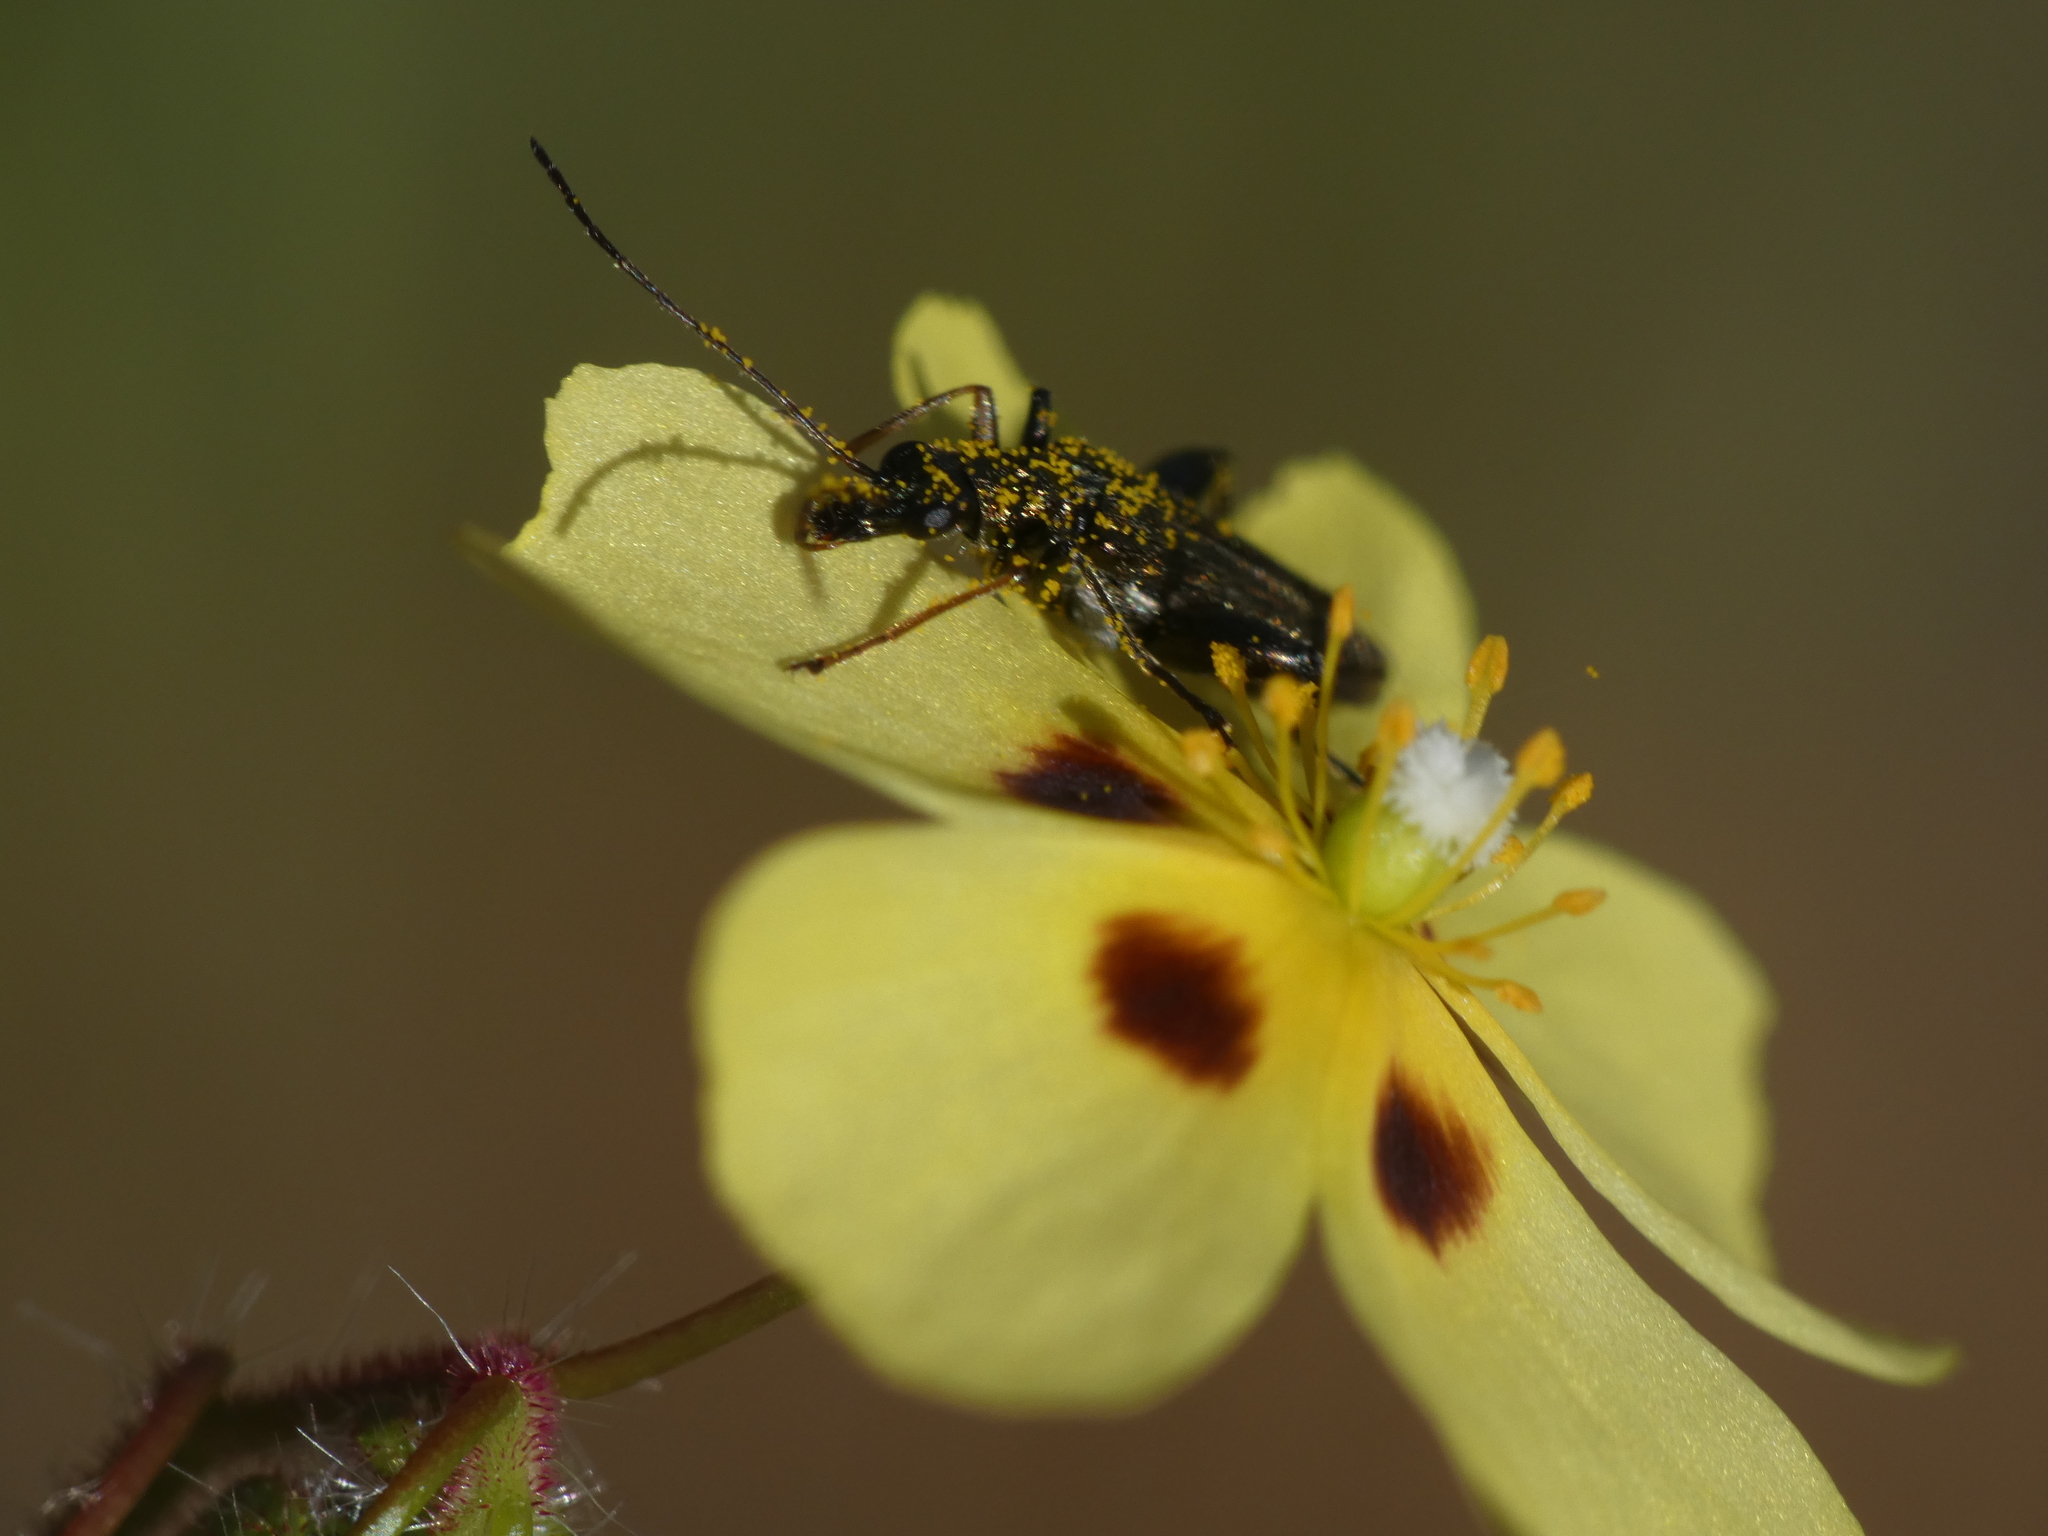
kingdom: Animalia
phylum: Arthropoda
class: Insecta
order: Coleoptera
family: Oedemeridae
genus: Oedemera
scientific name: Oedemera flavipes
